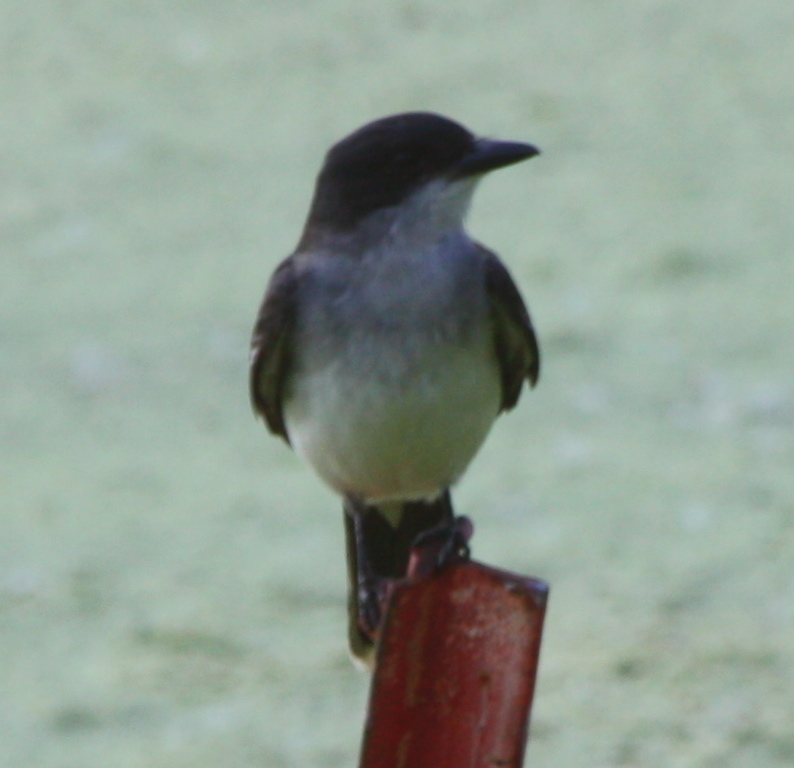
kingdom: Animalia
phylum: Chordata
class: Aves
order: Passeriformes
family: Tyrannidae
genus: Tyrannus
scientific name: Tyrannus tyrannus
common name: Eastern kingbird
